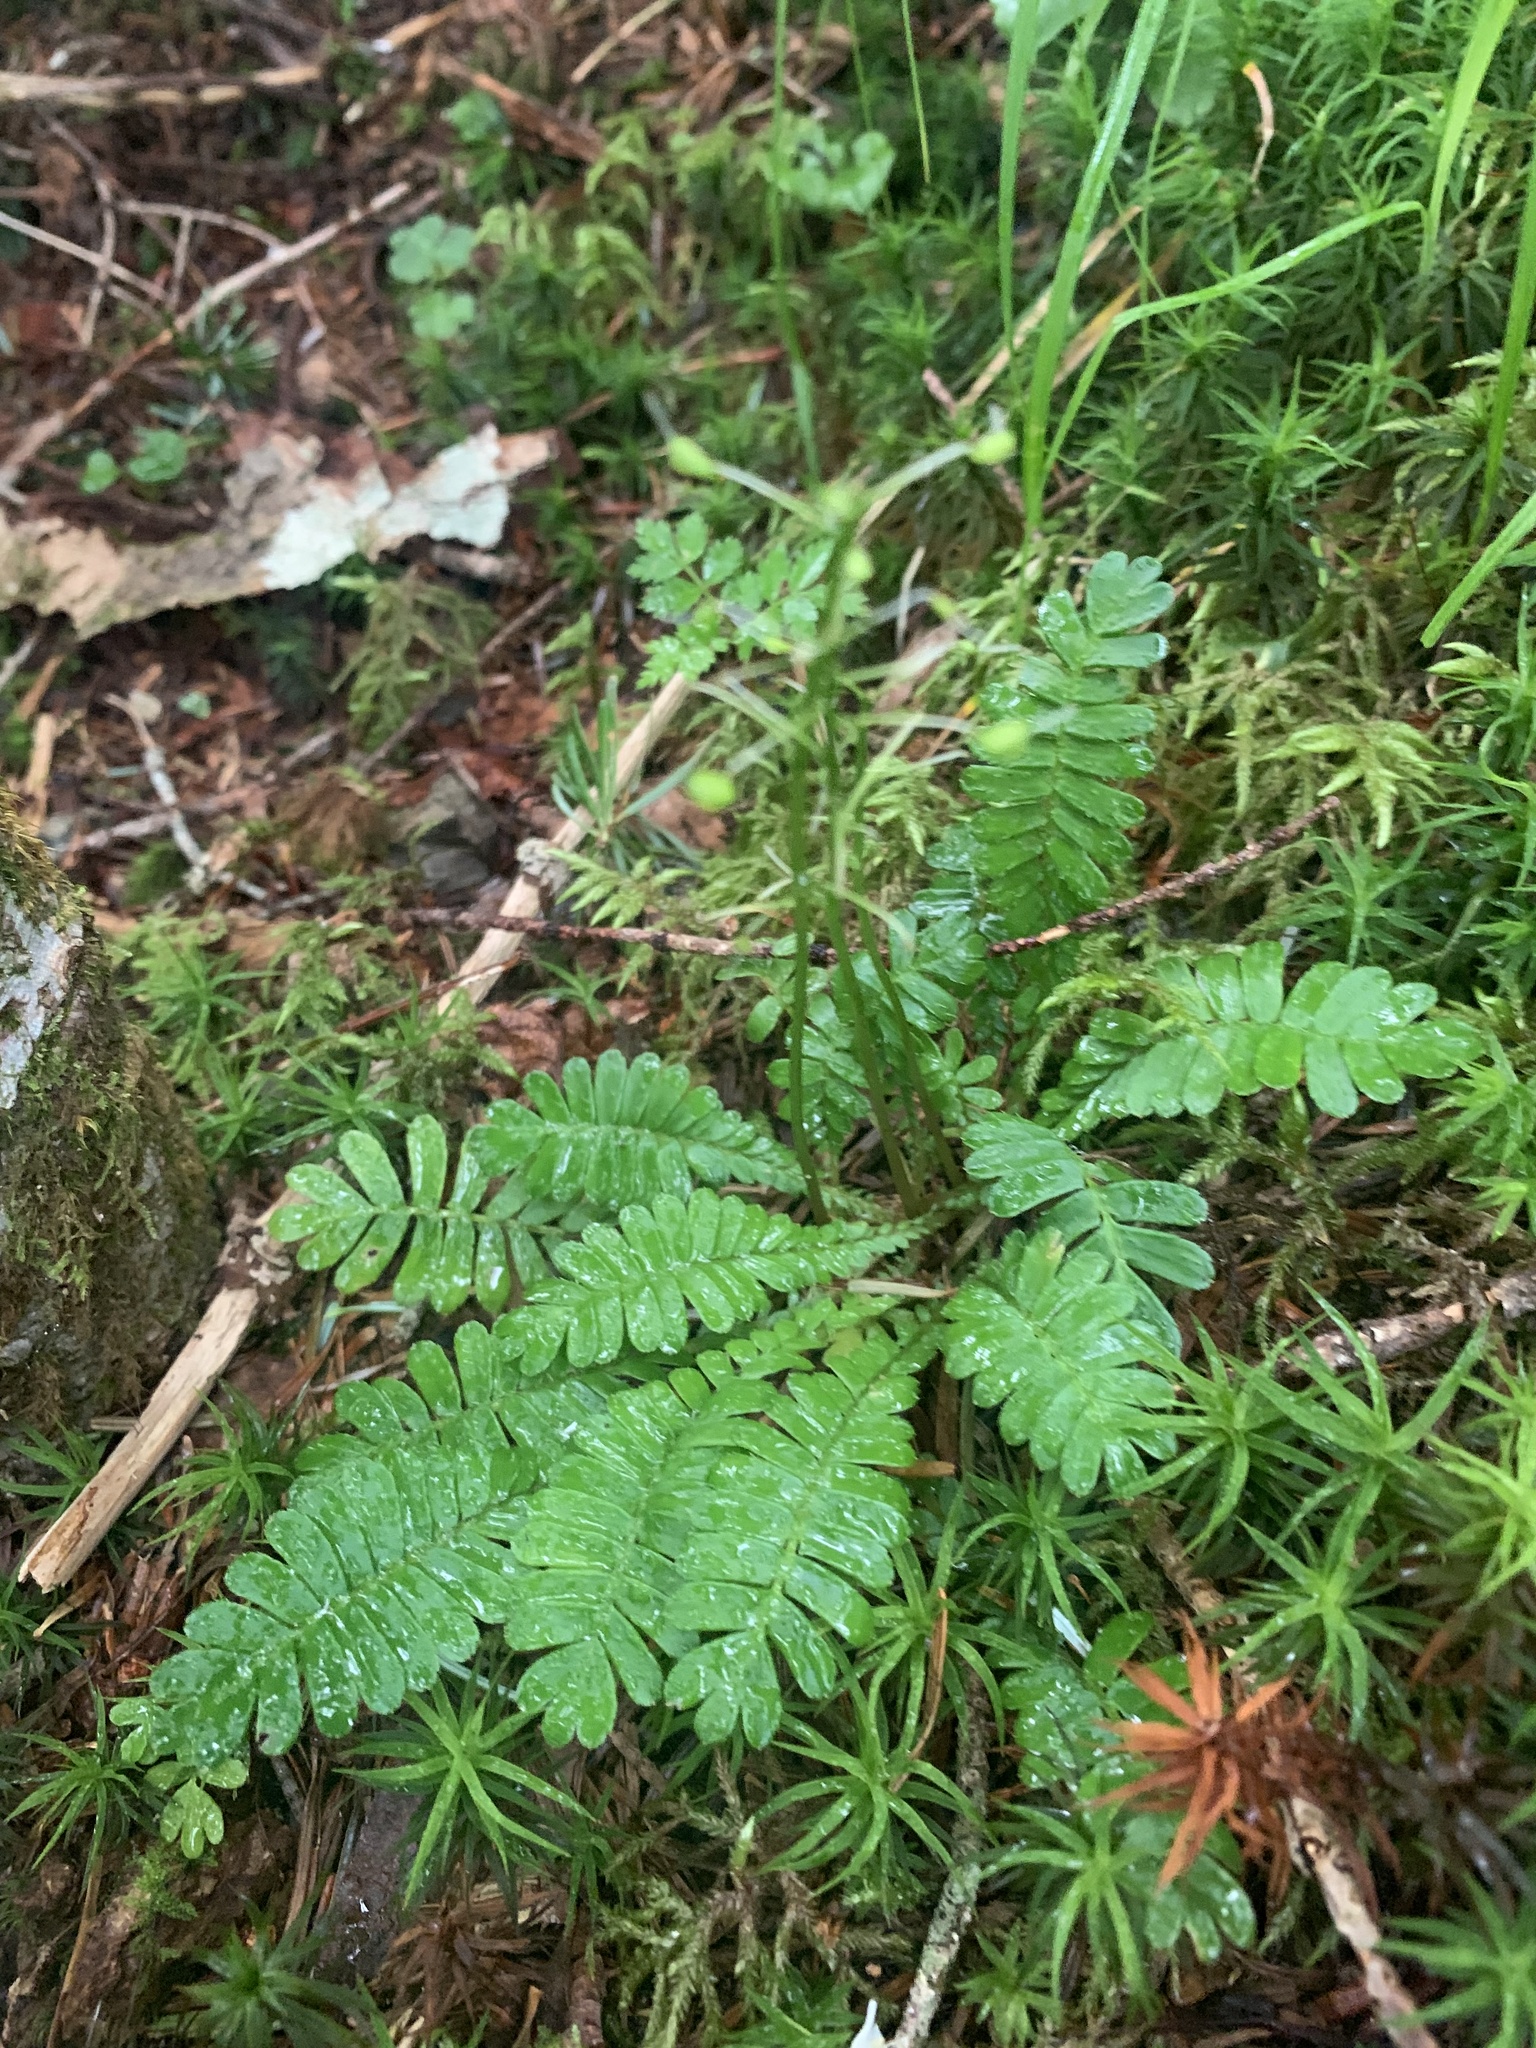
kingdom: Plantae
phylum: Tracheophyta
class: Magnoliopsida
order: Ranunculales
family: Pteridophyllaceae
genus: Pteridophyllum
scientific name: Pteridophyllum racemosum
